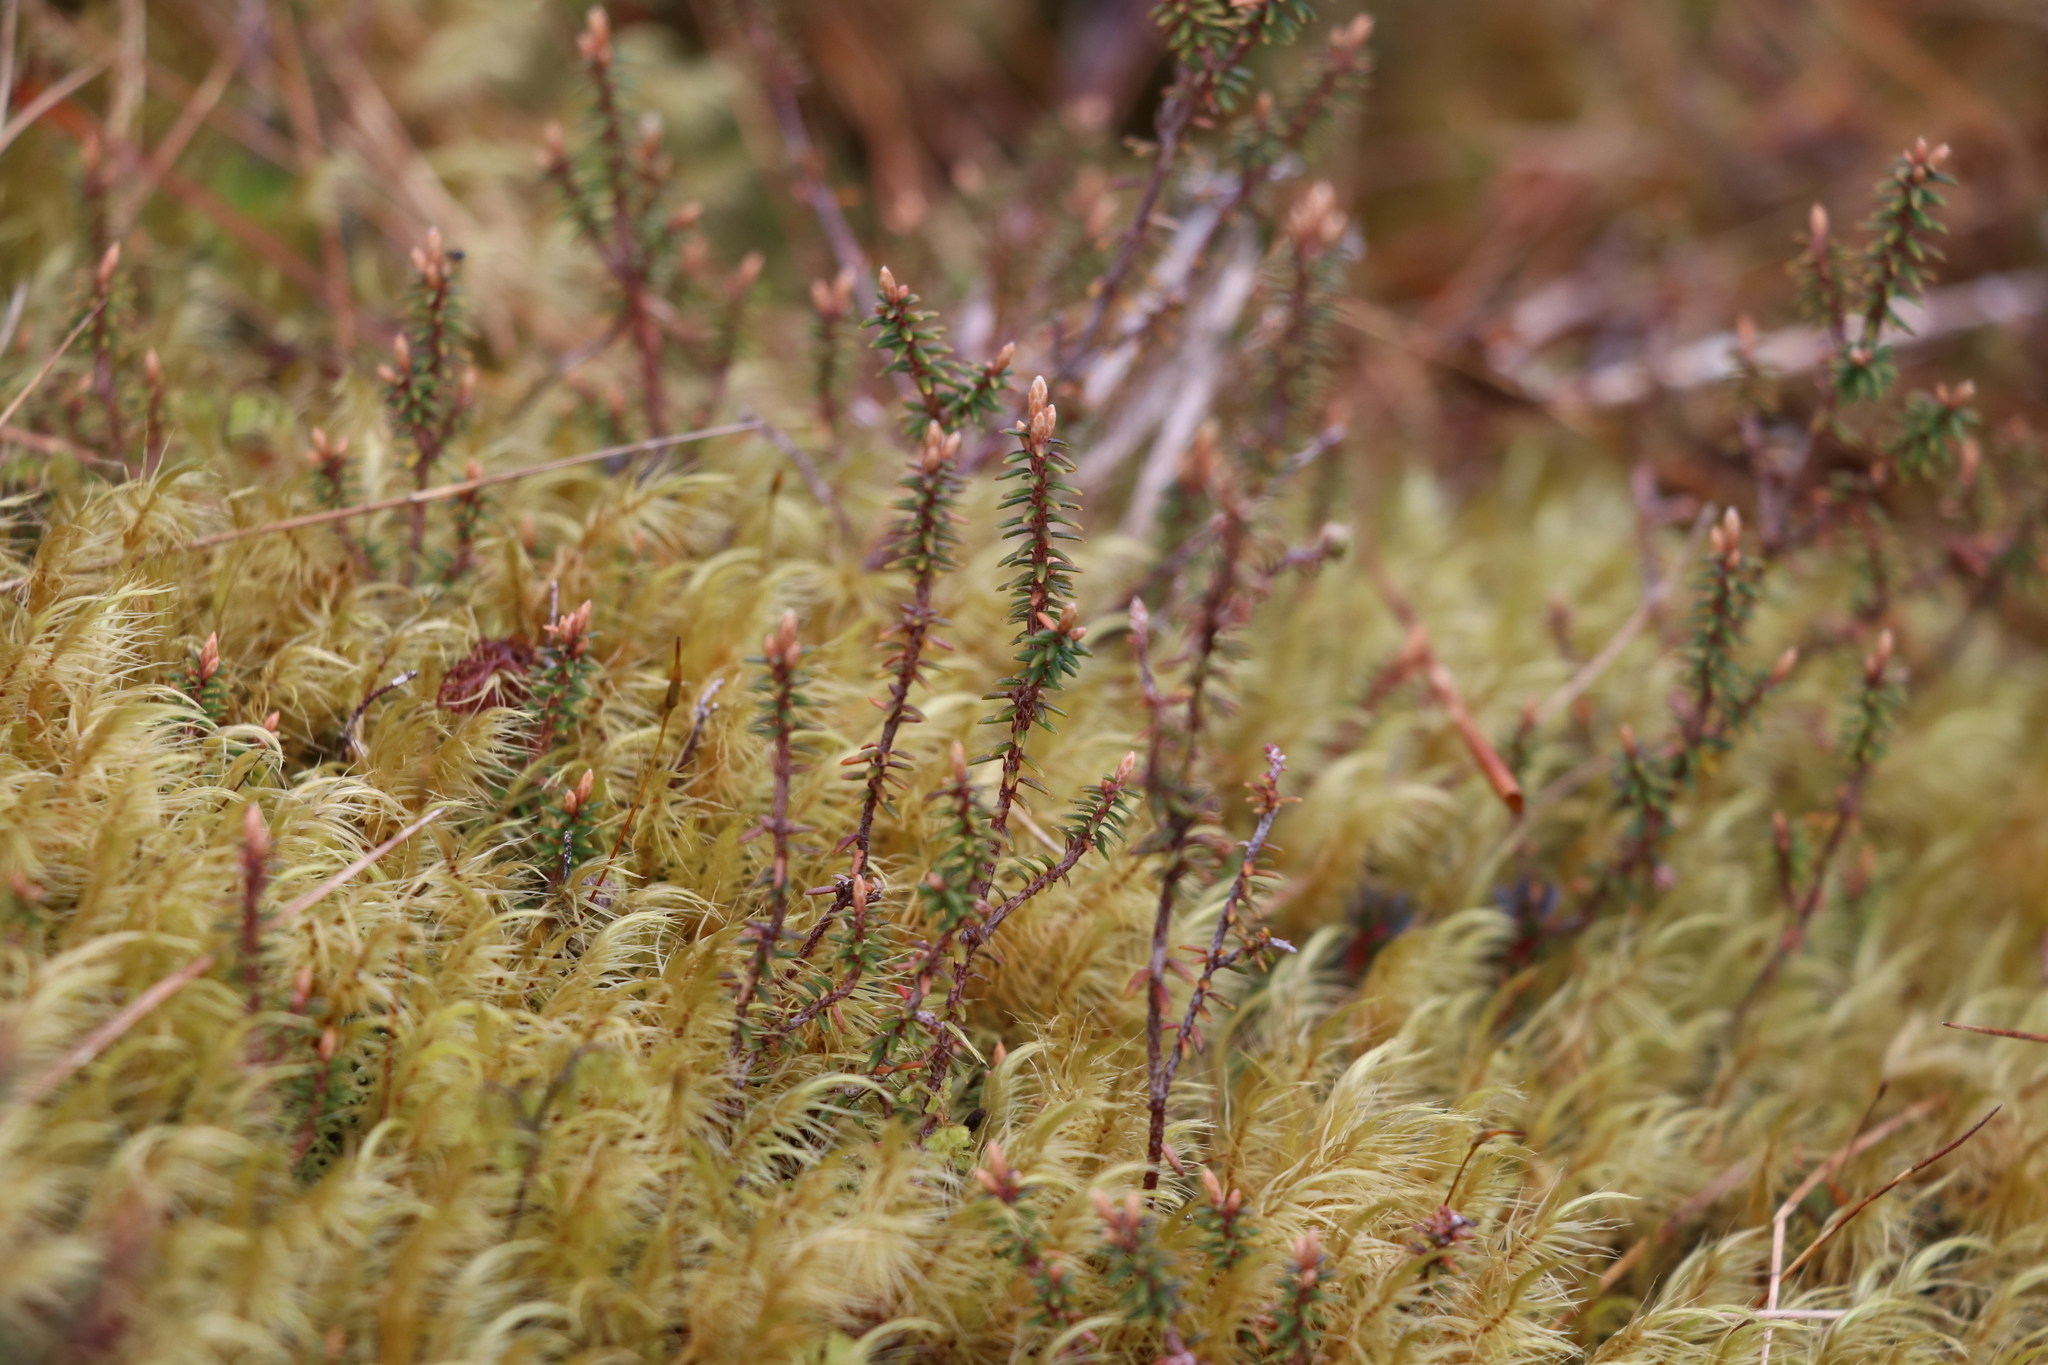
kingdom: Plantae
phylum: Tracheophyta
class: Magnoliopsida
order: Ericales
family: Ericaceae
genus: Androstoma
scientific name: Androstoma empetrifolia
